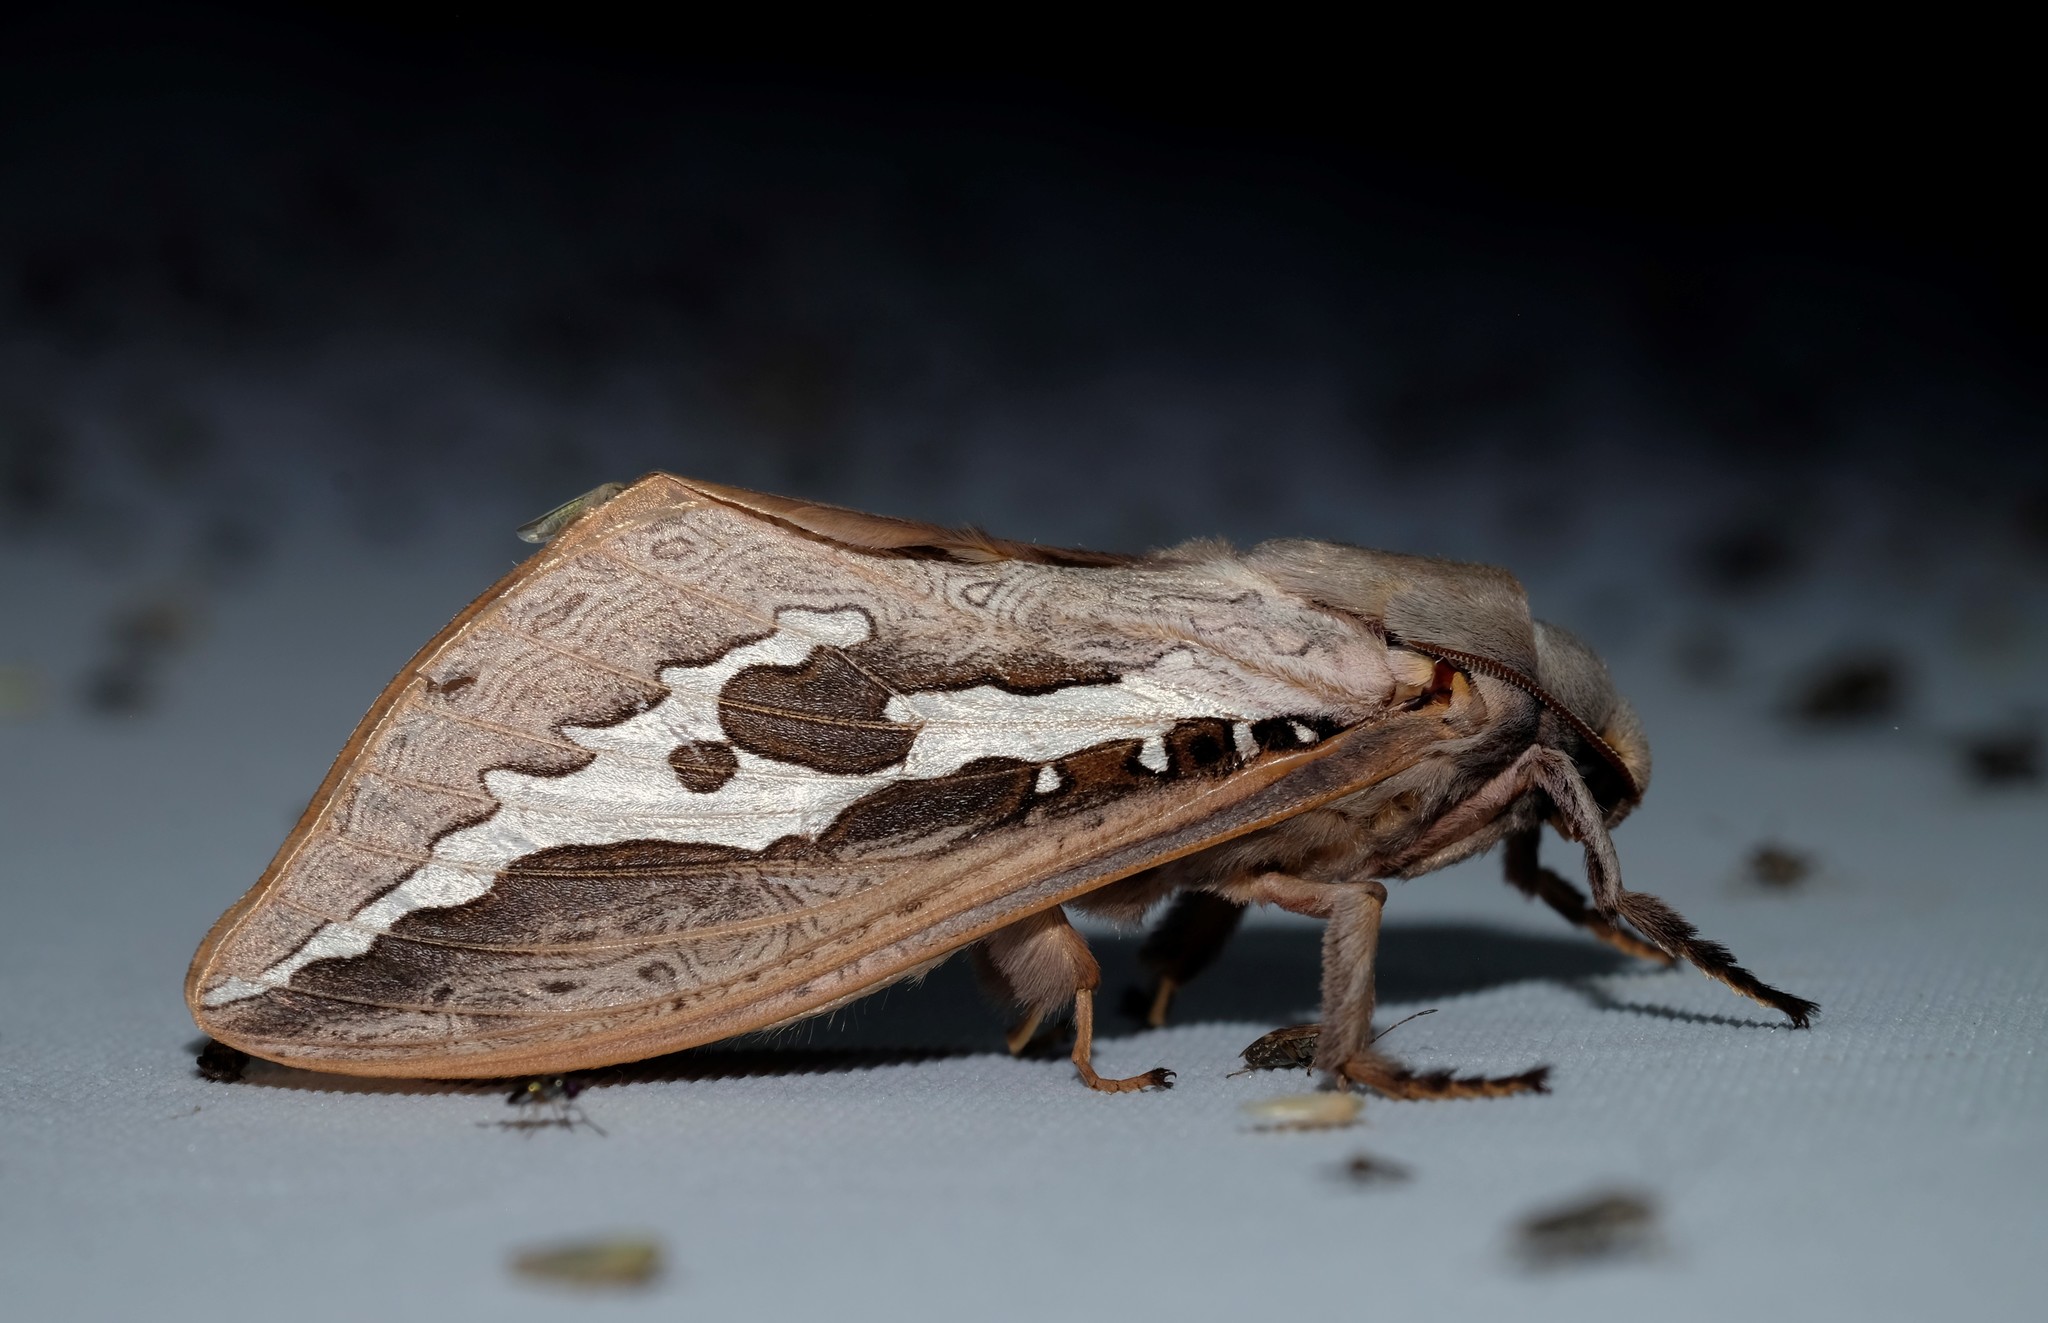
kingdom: Animalia
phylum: Arthropoda
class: Insecta
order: Lepidoptera
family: Hepialidae
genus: Abantiades
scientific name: Abantiades labyrinthicus
